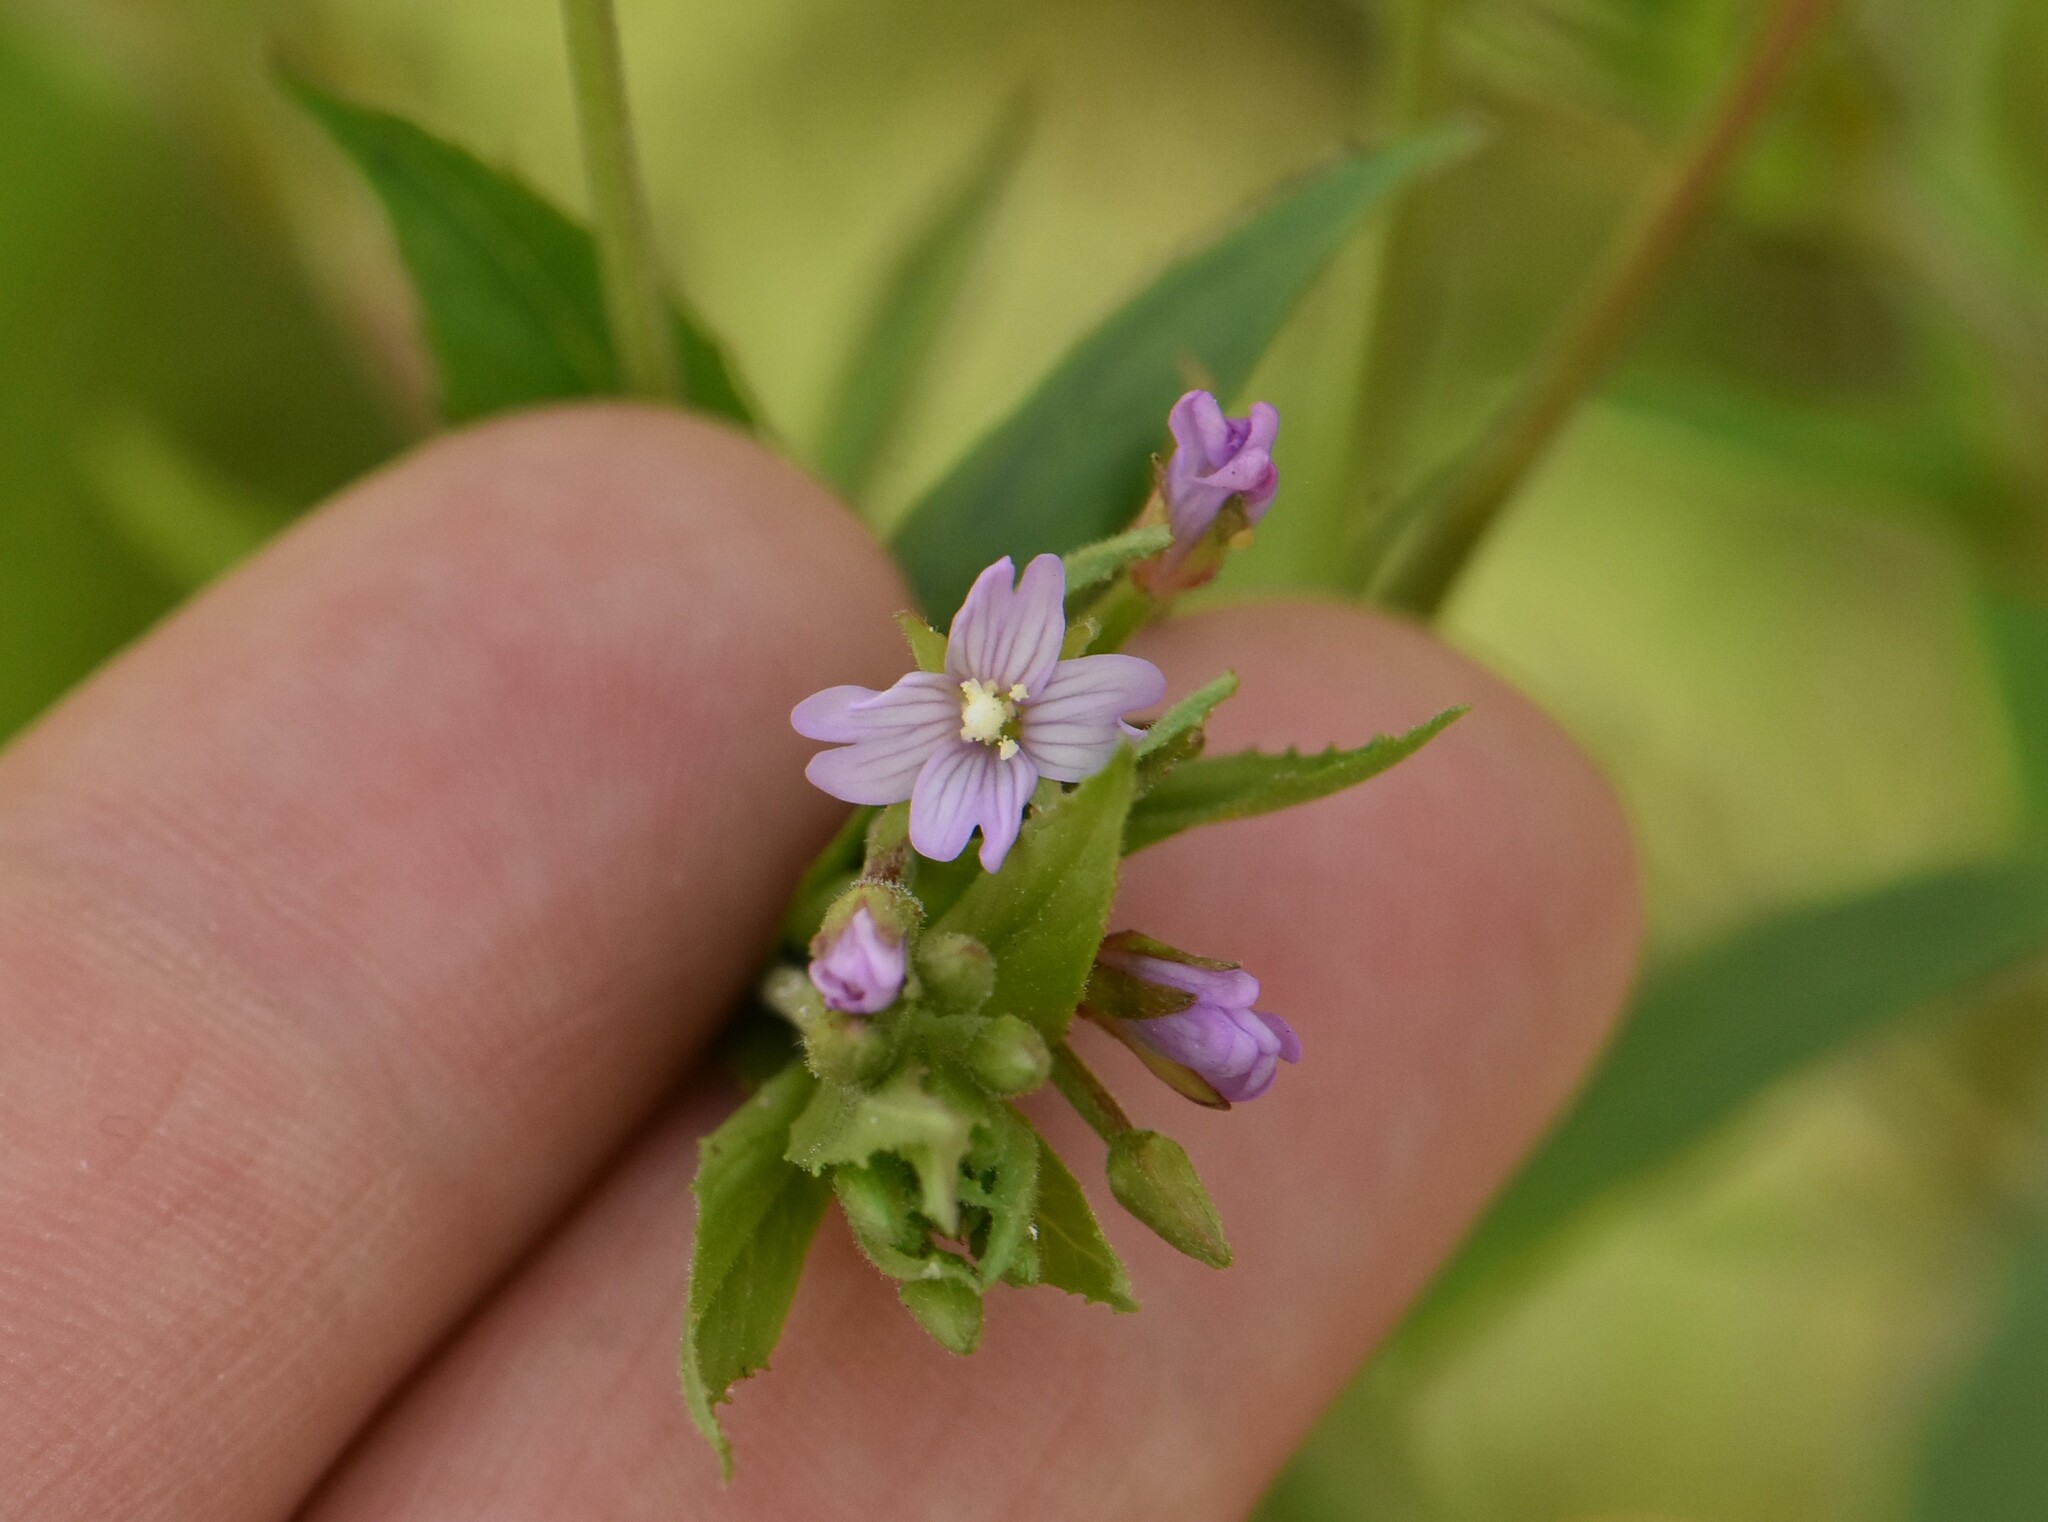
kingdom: Plantae
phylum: Tracheophyta
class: Magnoliopsida
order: Myrtales
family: Onagraceae
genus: Epilobium
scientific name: Epilobium ciliatum
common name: American willowherb
